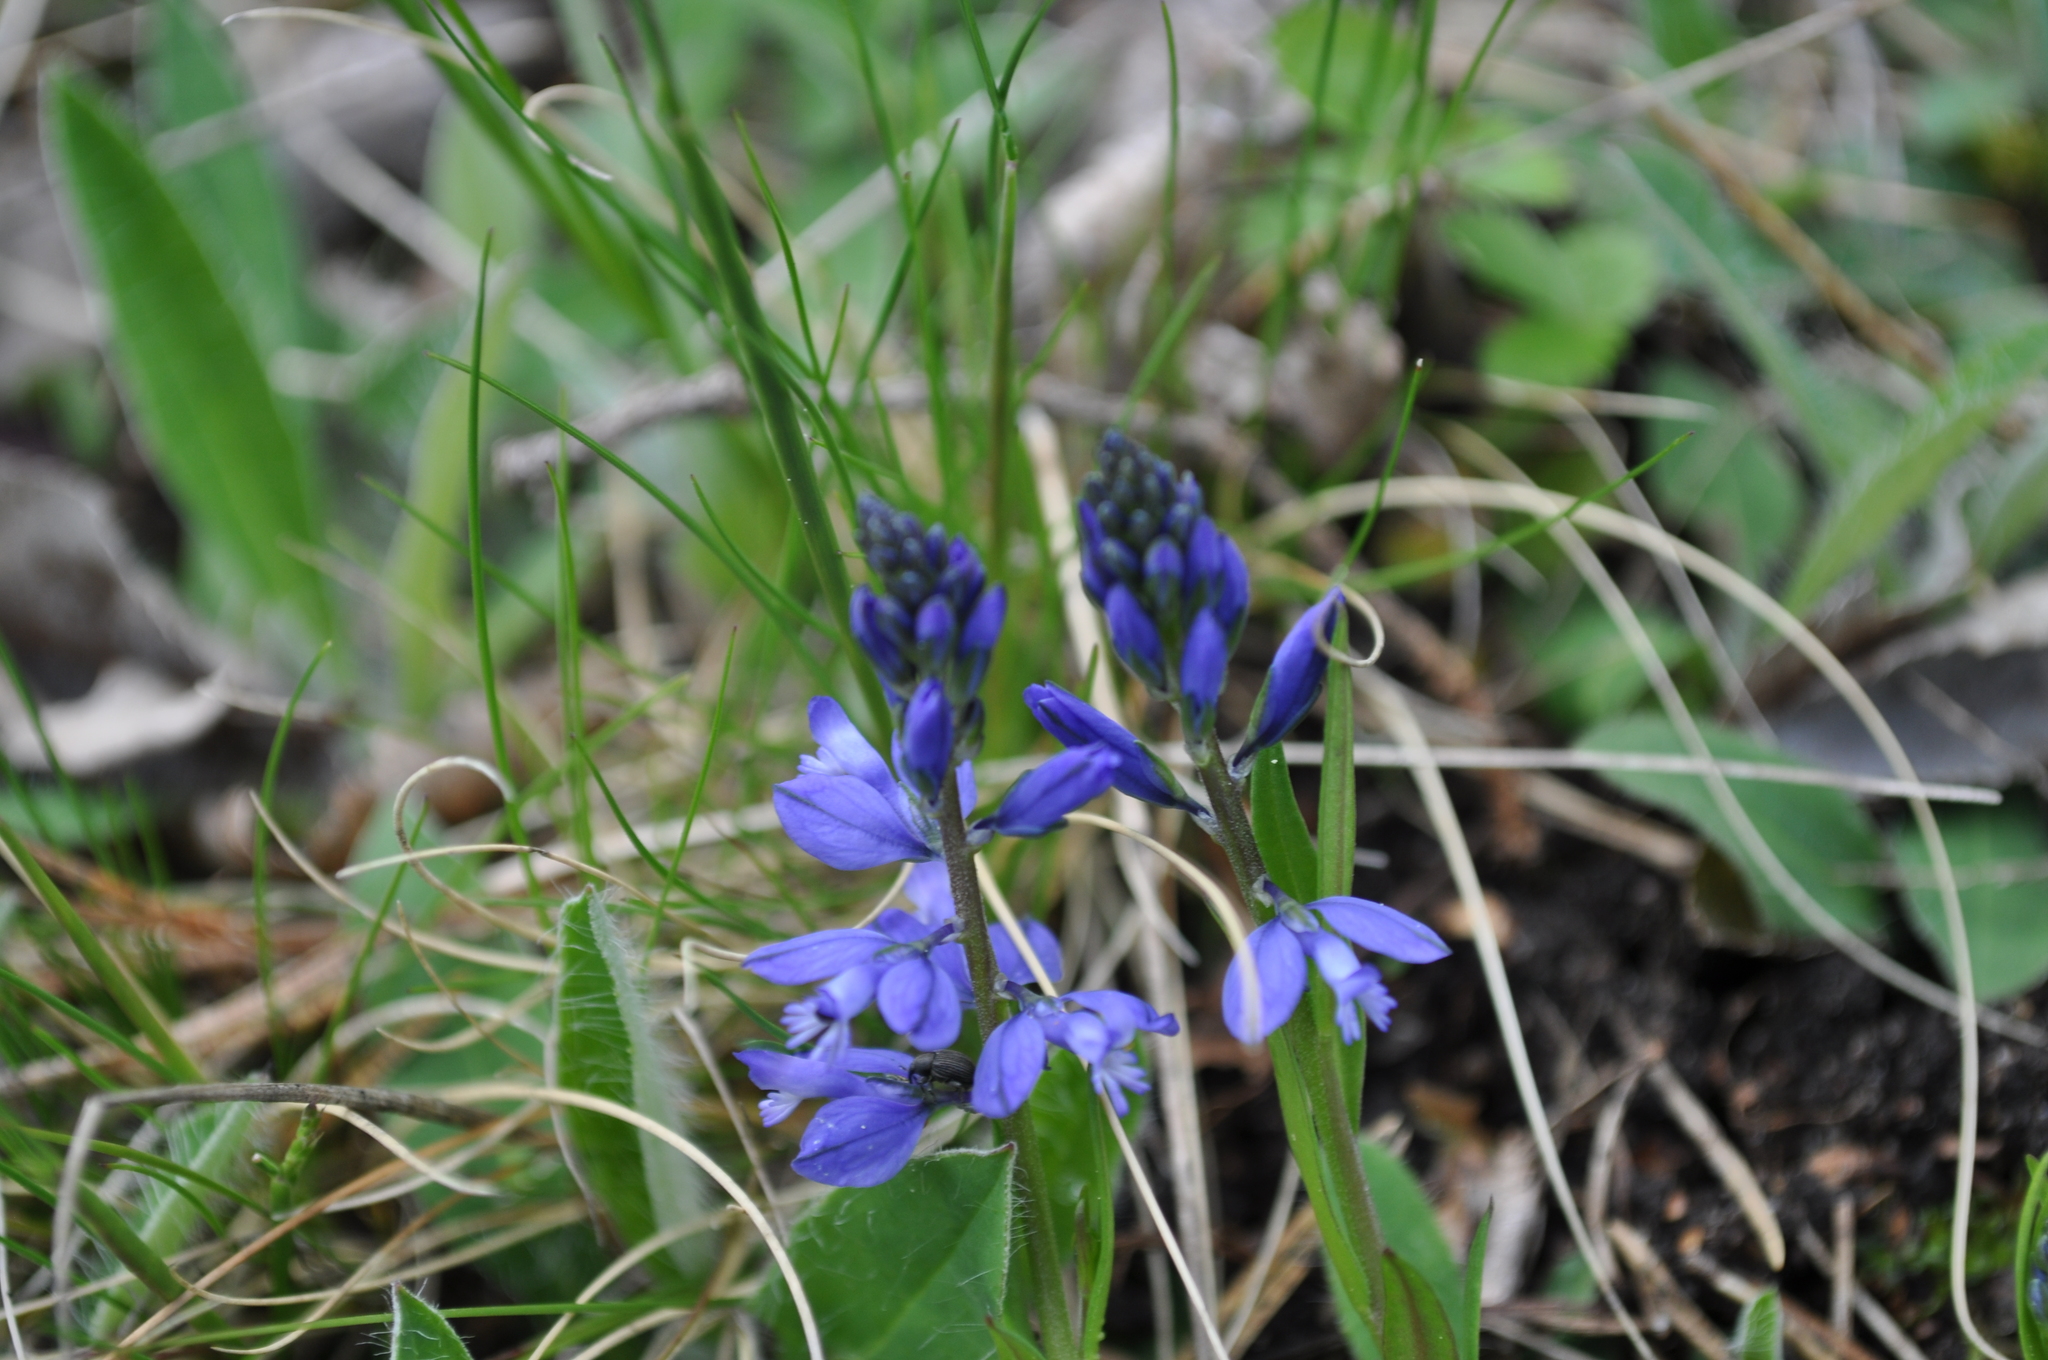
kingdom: Plantae
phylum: Tracheophyta
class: Magnoliopsida
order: Fabales
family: Polygalaceae
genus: Polygala
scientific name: Polygala vulgaris
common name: Common milkwort
